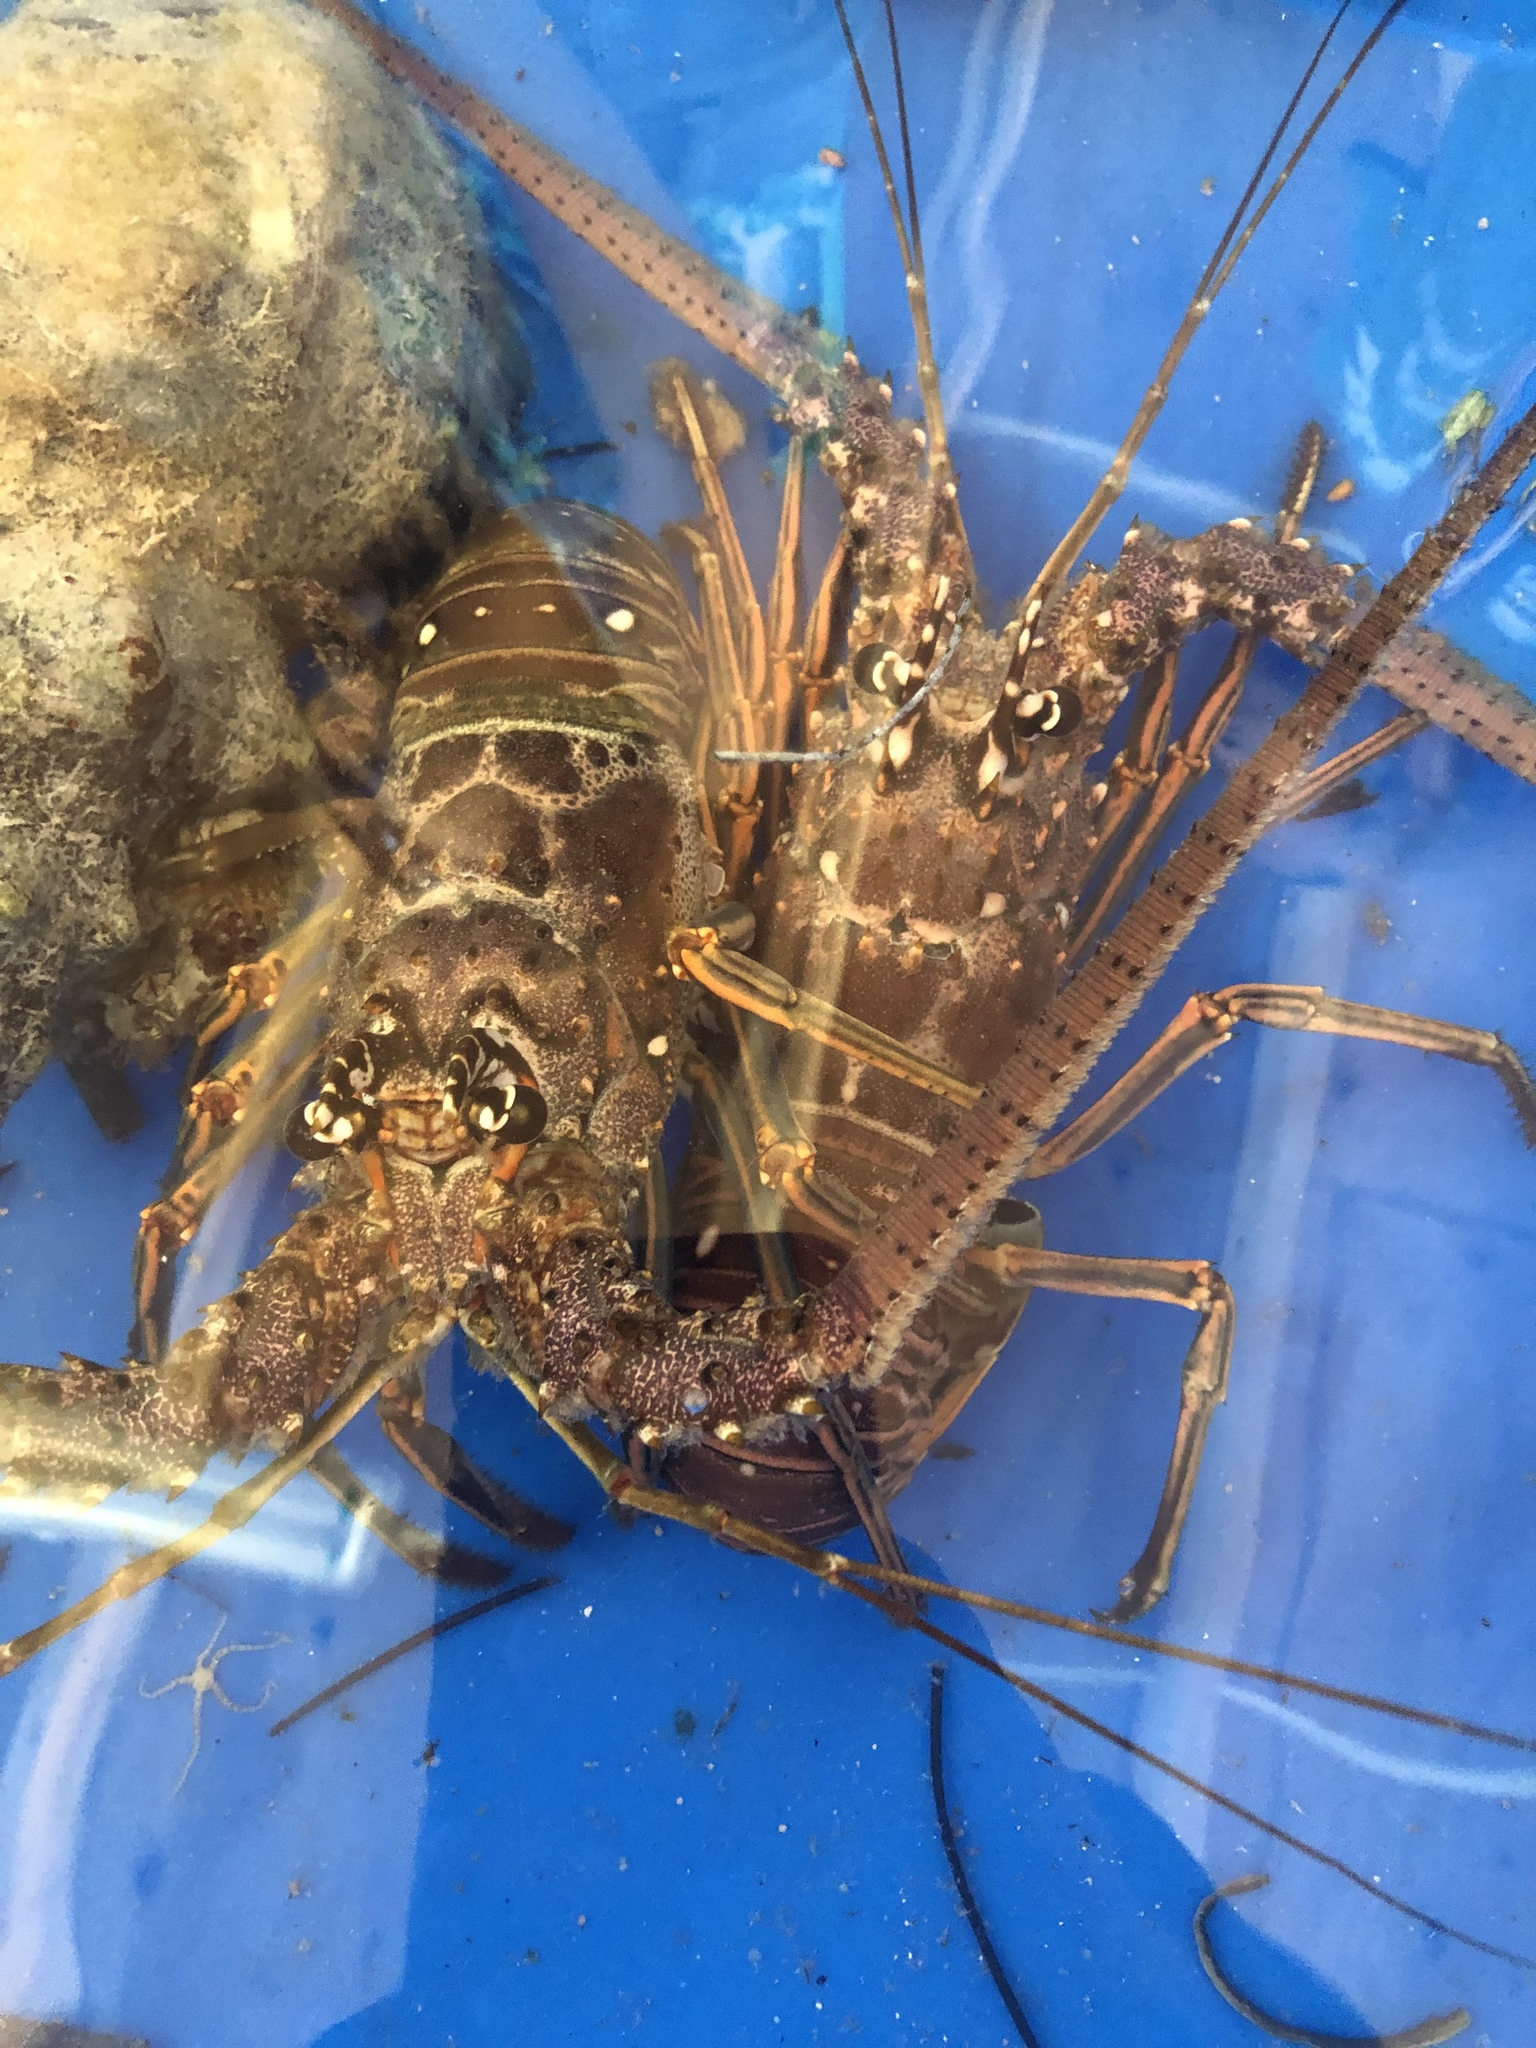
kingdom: Animalia
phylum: Arthropoda
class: Malacostraca
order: Decapoda
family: Palinuridae
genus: Panulirus
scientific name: Panulirus argus
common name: Caribbean spiny lobster
